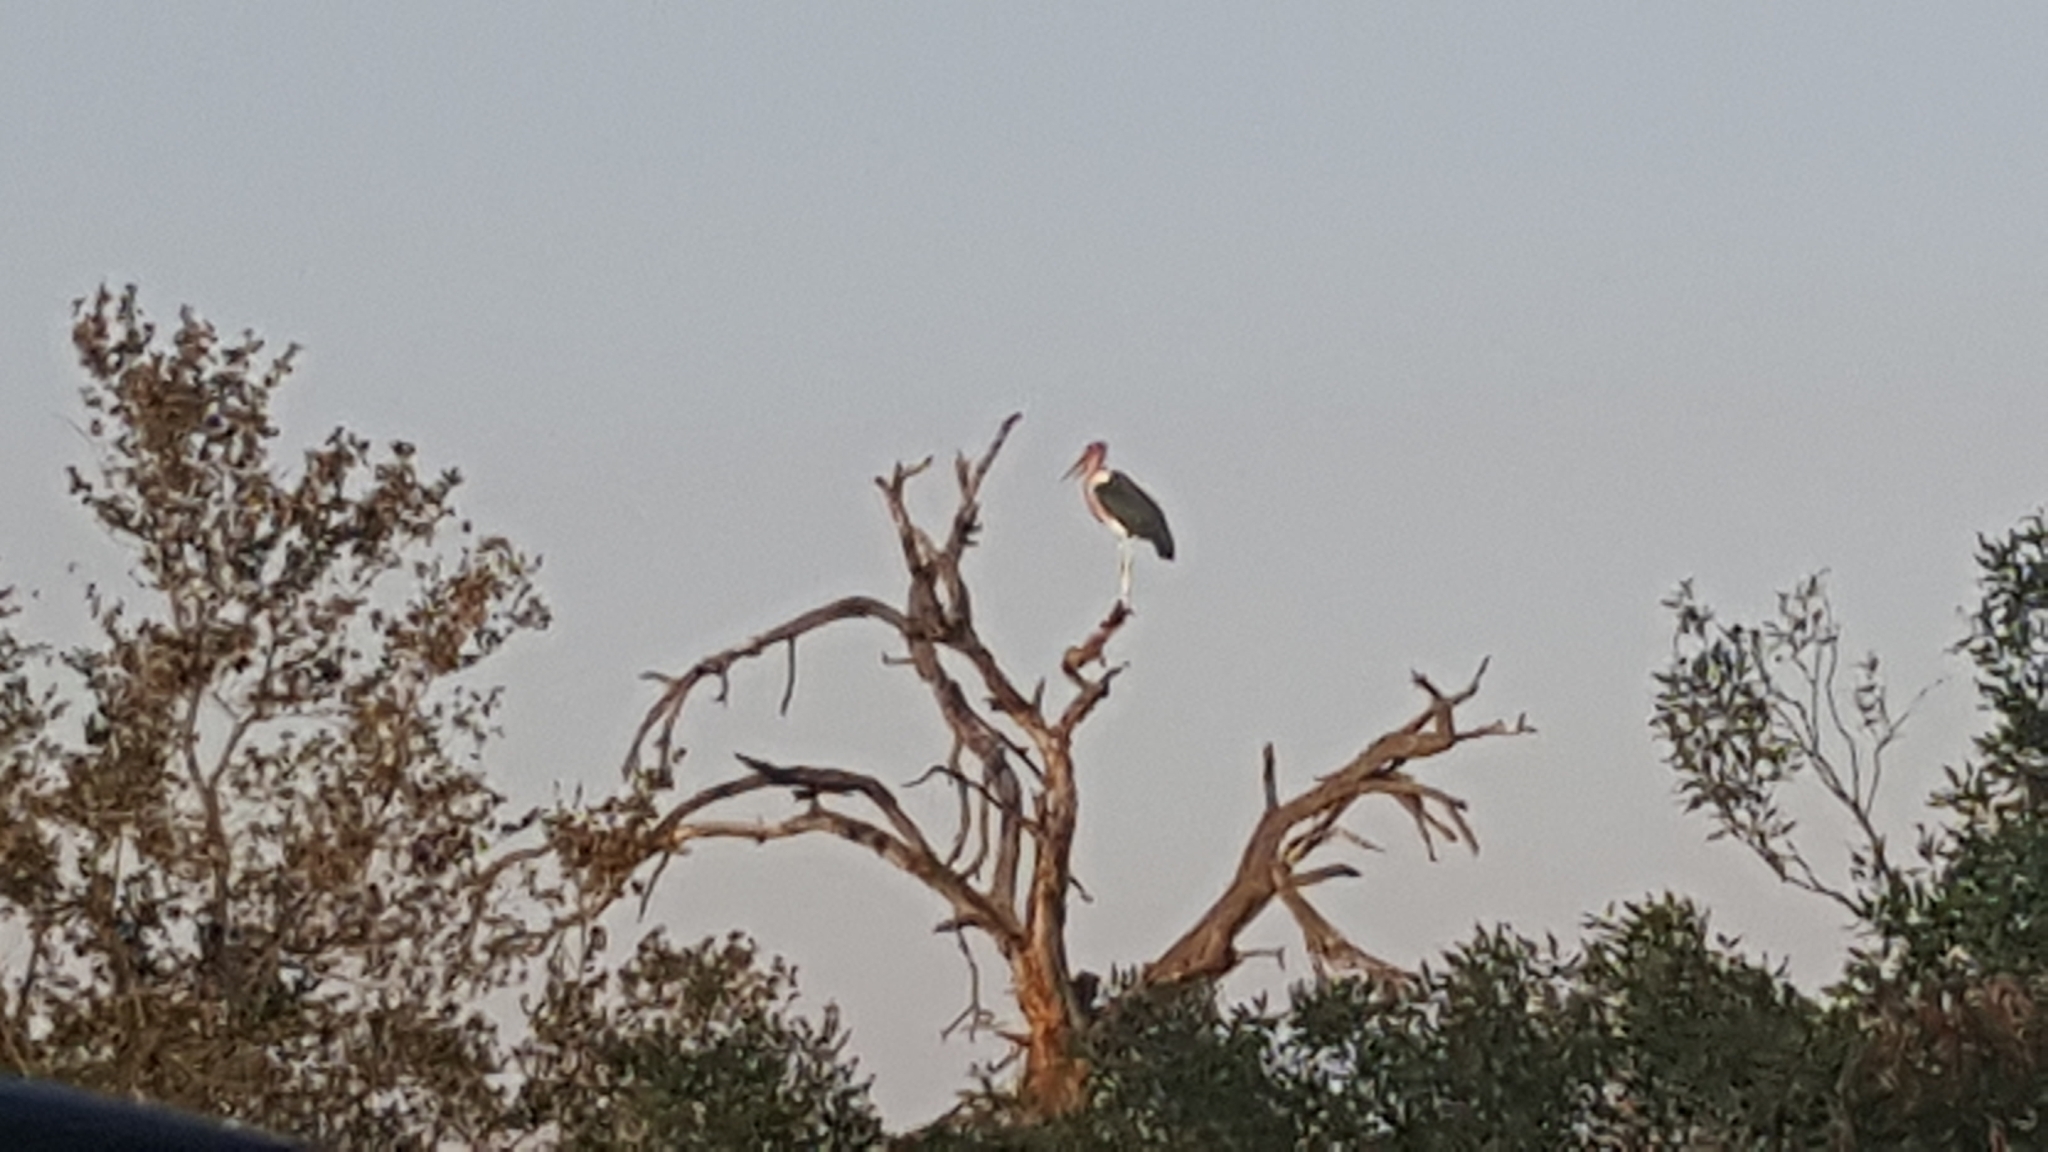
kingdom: Animalia
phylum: Chordata
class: Aves
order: Ciconiiformes
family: Ciconiidae
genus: Leptoptilos
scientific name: Leptoptilos crumenifer
